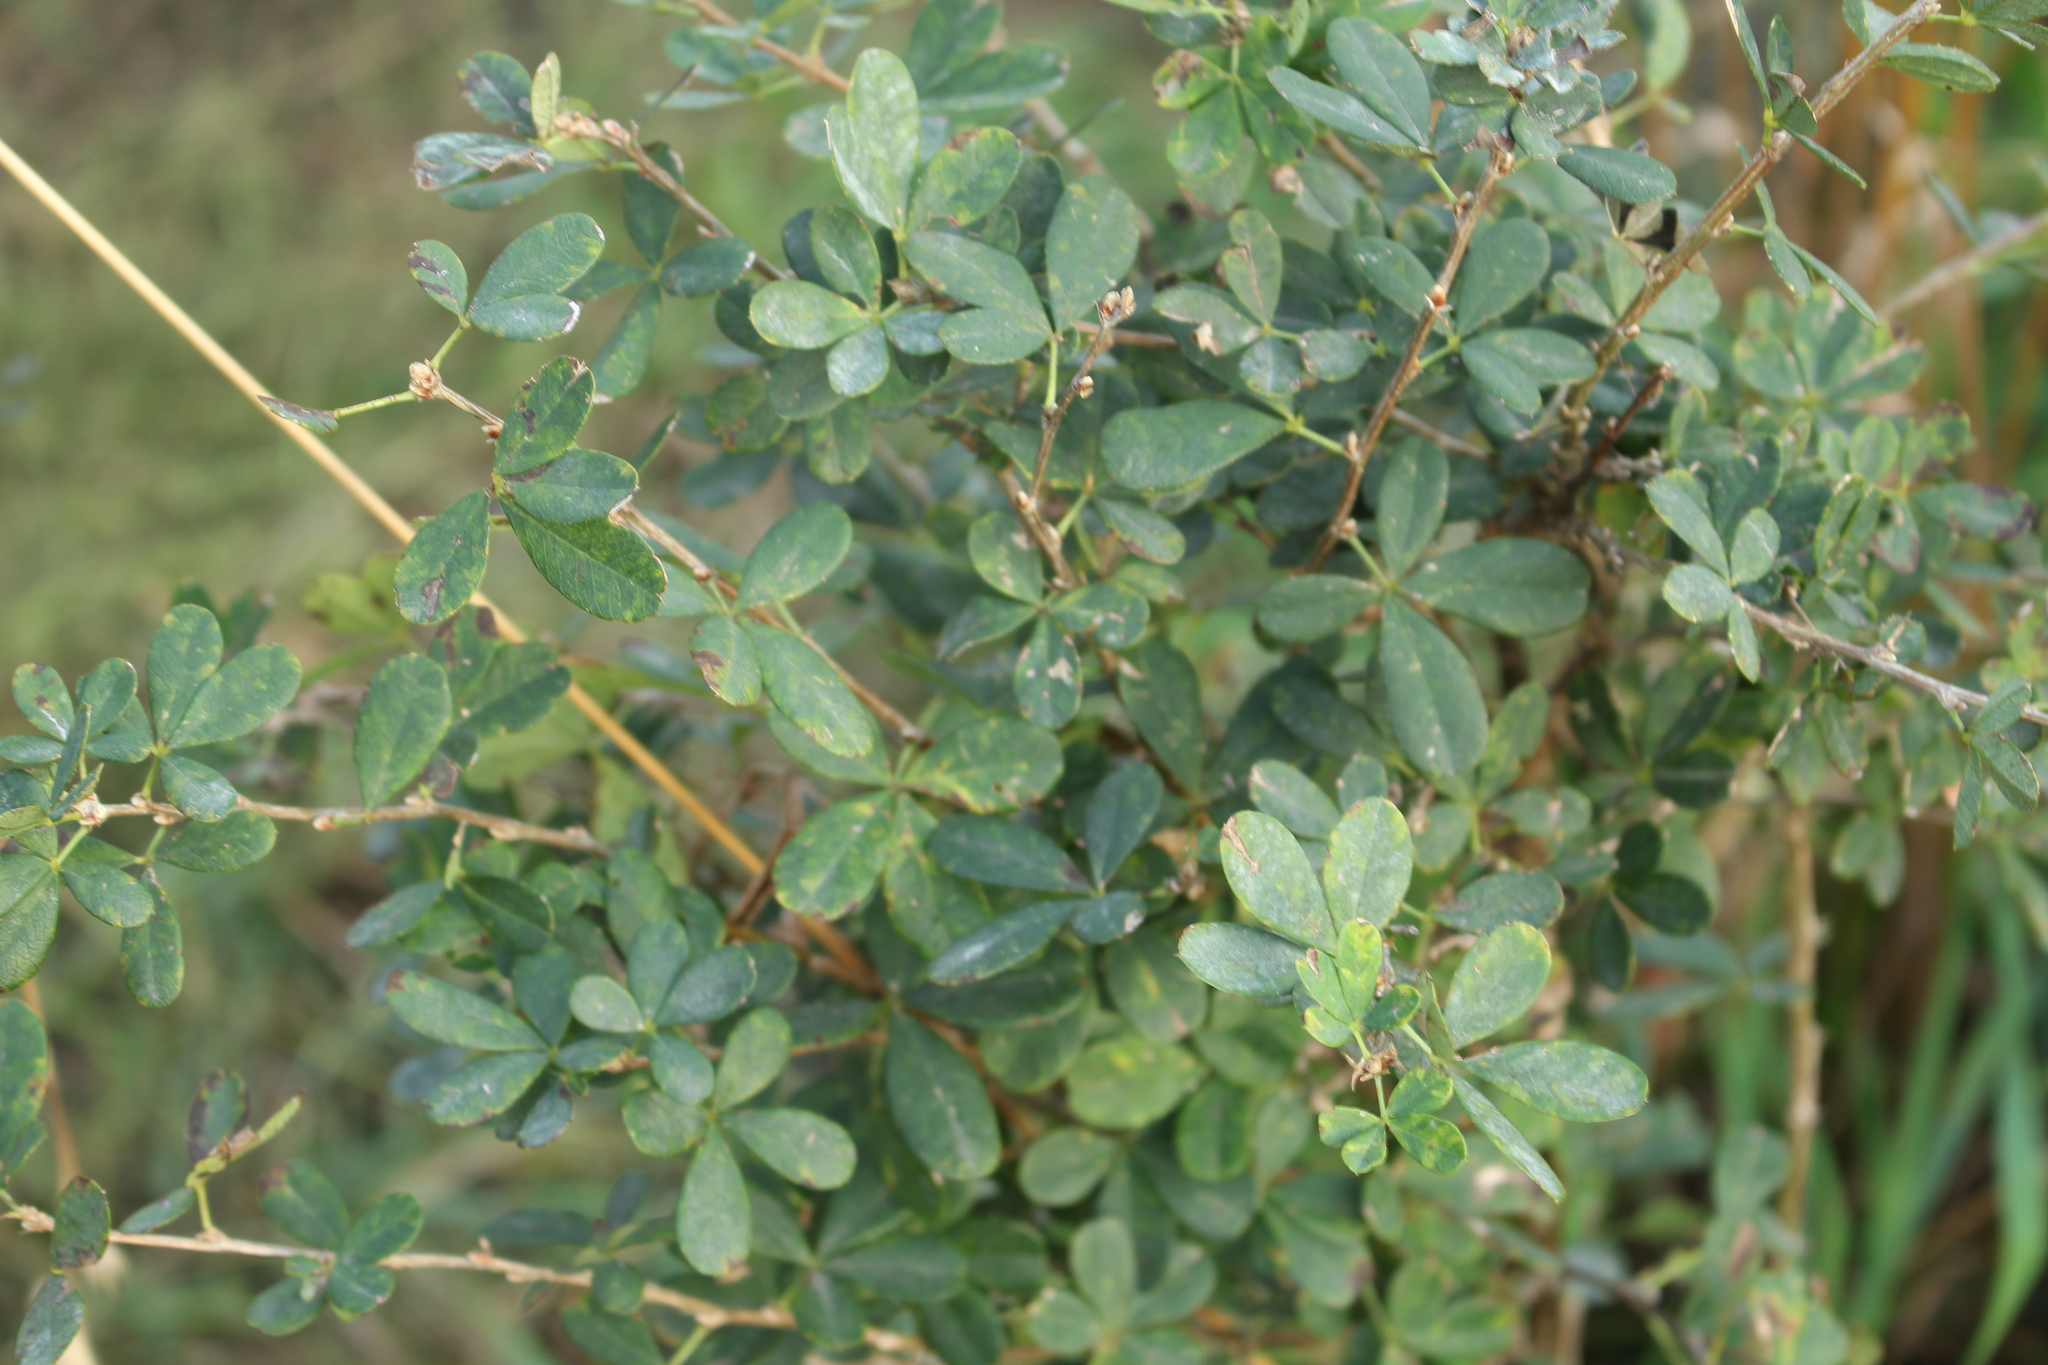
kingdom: Plantae
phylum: Tracheophyta
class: Magnoliopsida
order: Fabales
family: Fabaceae
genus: Caragana
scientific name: Caragana frutex
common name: Russian peashrub
